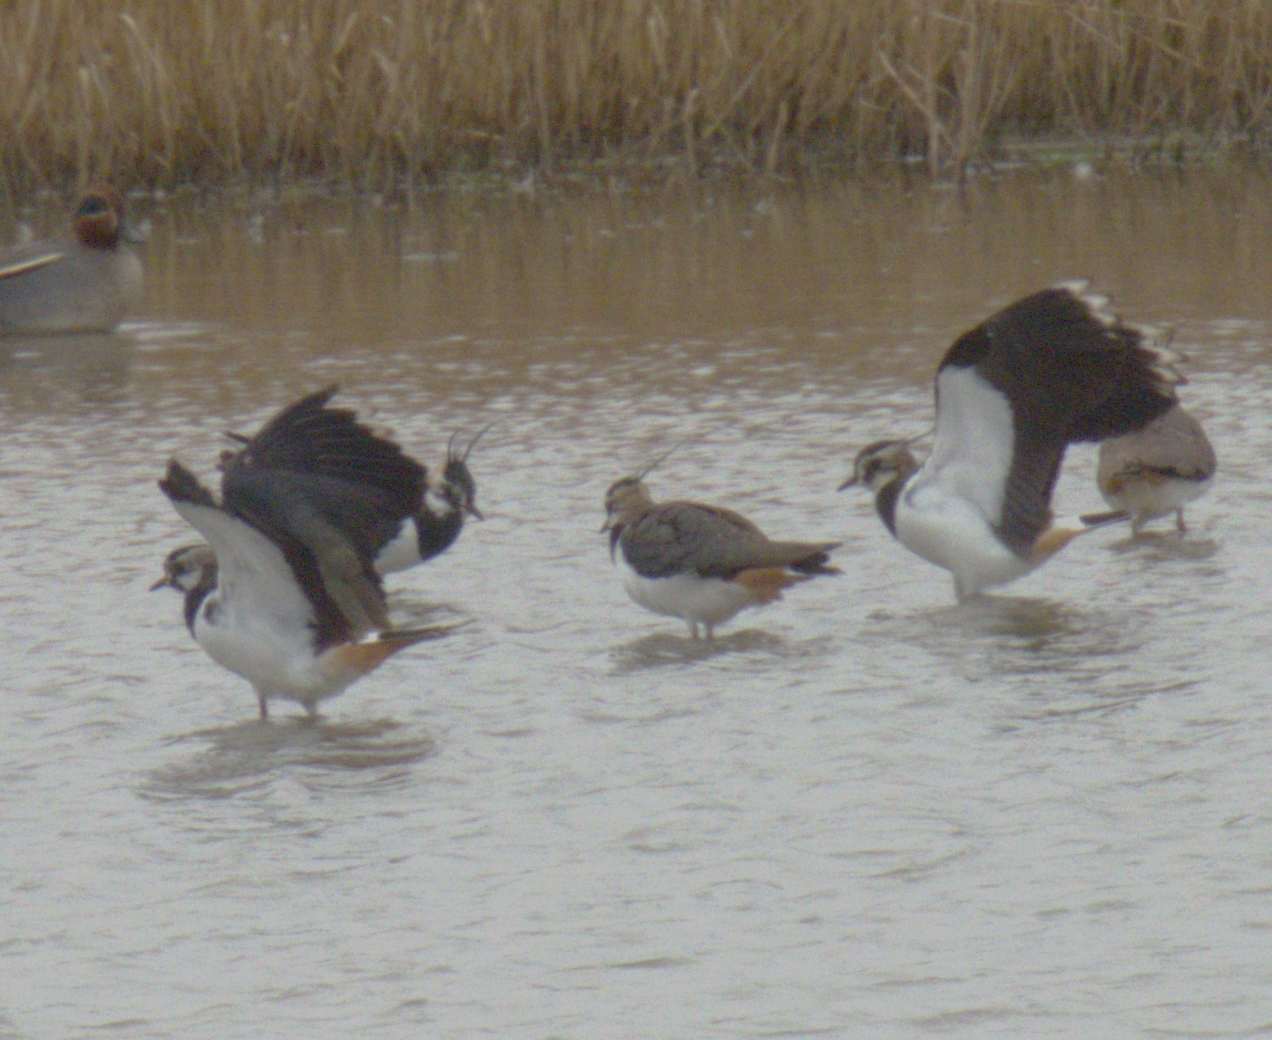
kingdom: Animalia
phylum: Chordata
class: Aves
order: Charadriiformes
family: Charadriidae
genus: Vanellus
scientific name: Vanellus vanellus
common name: Northern lapwing
